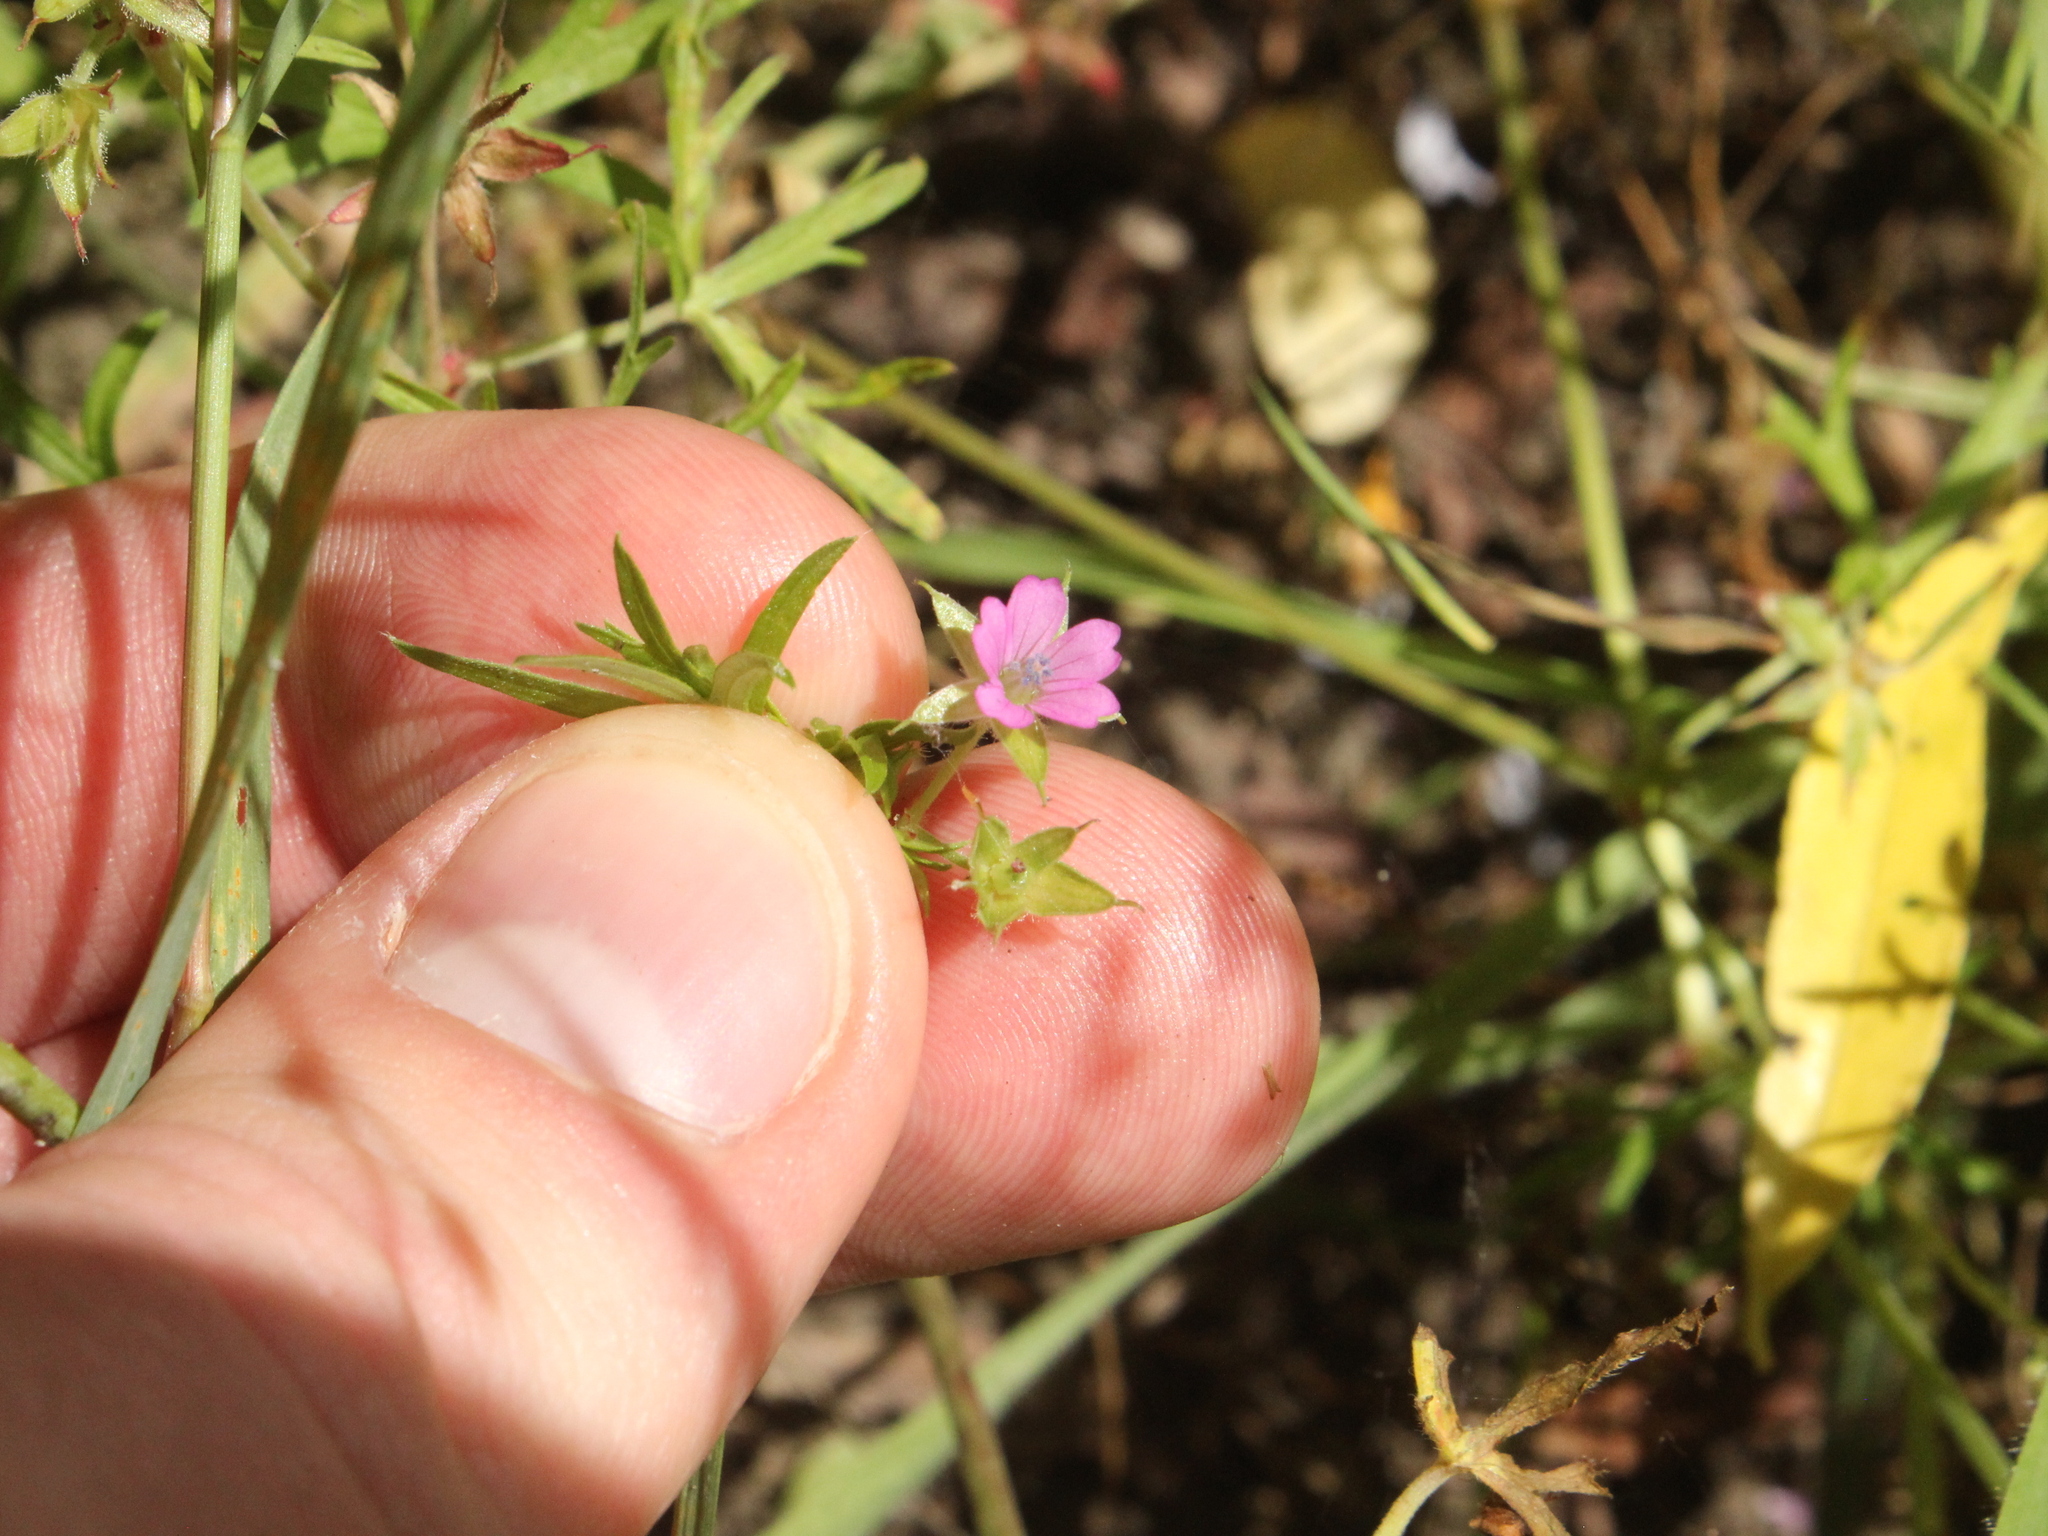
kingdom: Plantae
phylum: Tracheophyta
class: Magnoliopsida
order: Geraniales
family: Geraniaceae
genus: Geranium
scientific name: Geranium dissectum
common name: Cut-leaved crane's-bill
